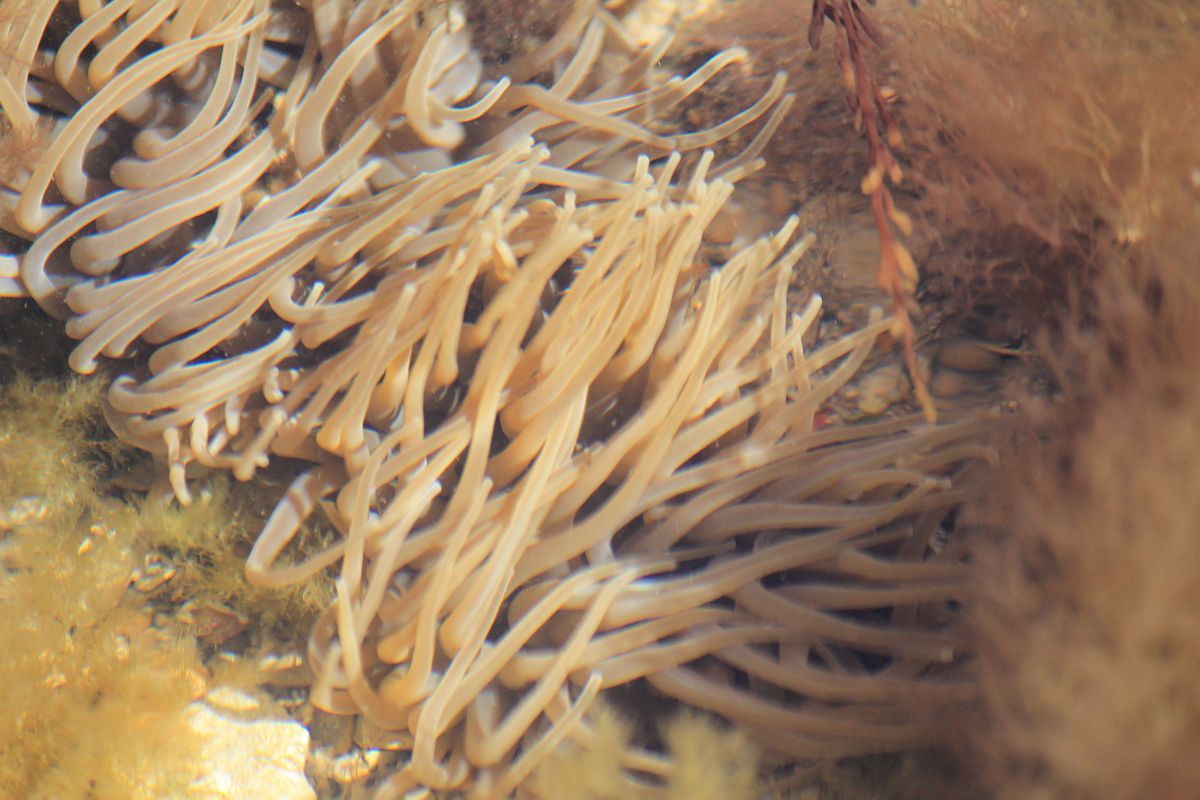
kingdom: Animalia
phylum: Cnidaria
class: Anthozoa
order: Actiniaria
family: Actiniidae
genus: Anemonia
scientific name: Anemonia viridis
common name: Snakelocks anemone
